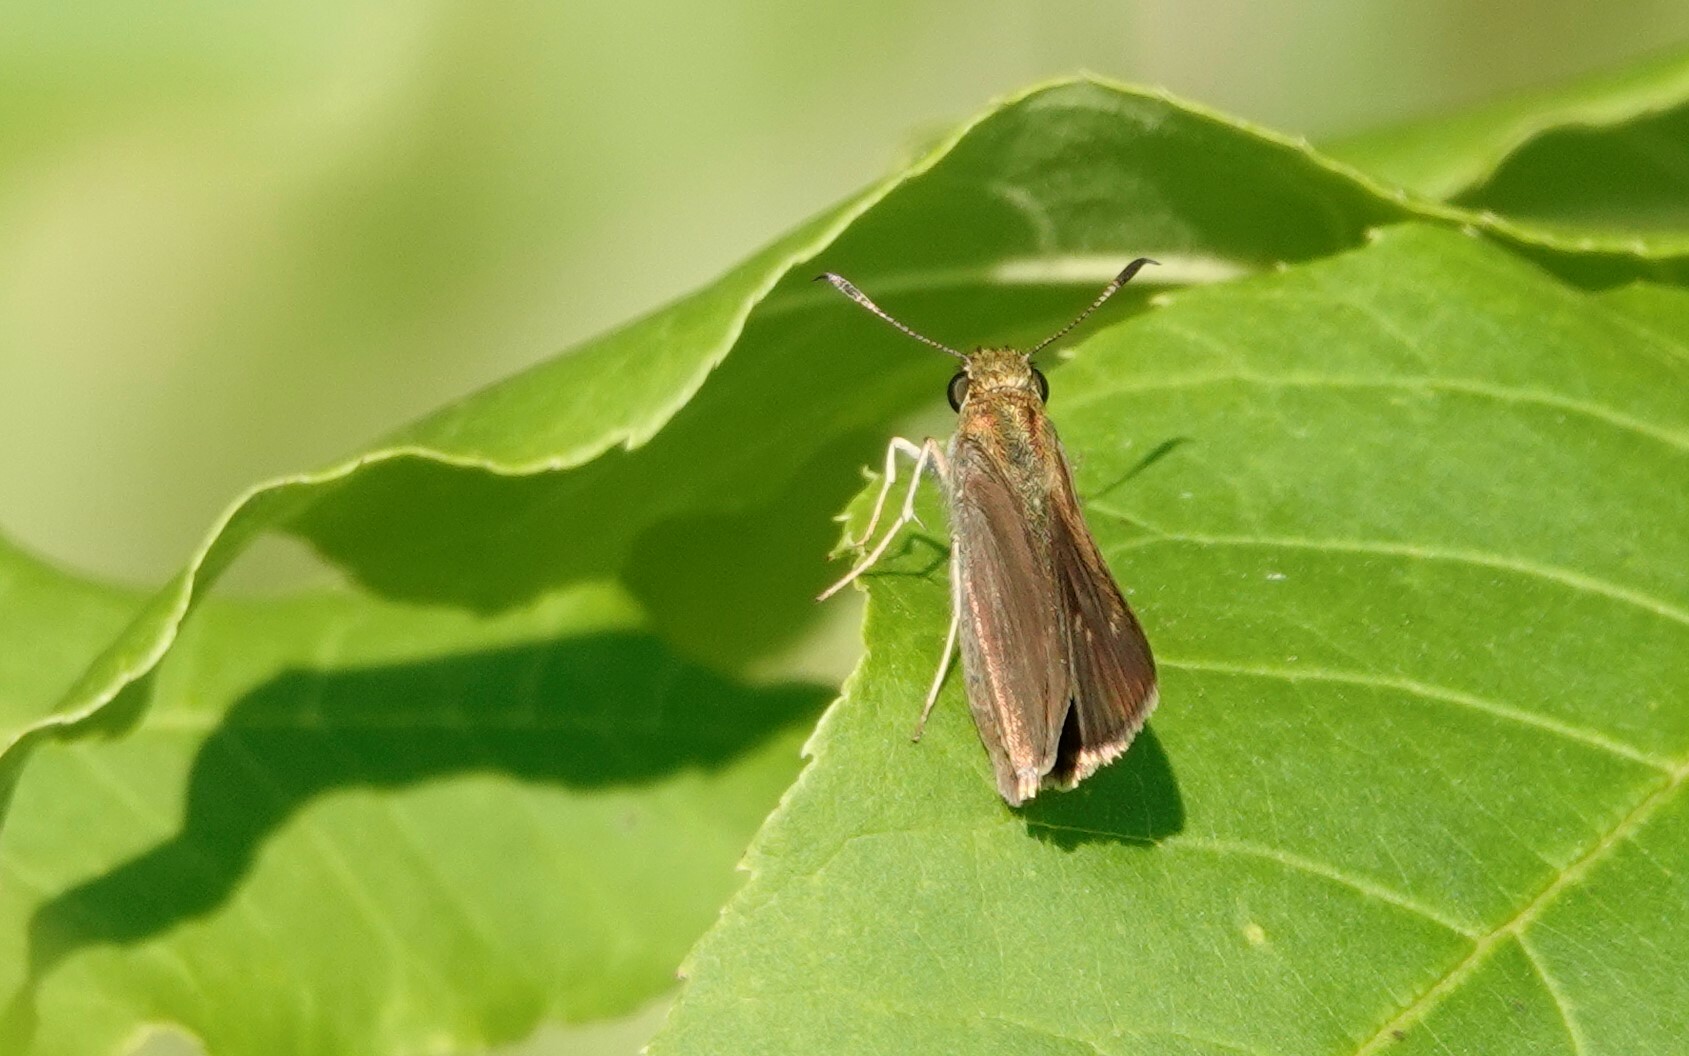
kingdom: Animalia
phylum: Arthropoda
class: Insecta
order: Lepidoptera
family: Hesperiidae
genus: Euphyes
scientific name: Euphyes vestris
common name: Dun skipper
